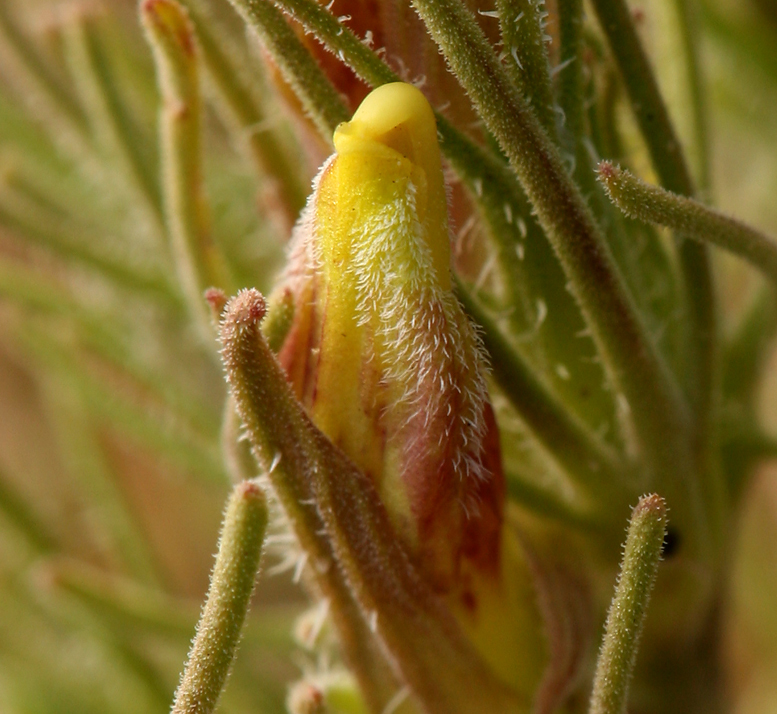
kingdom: Plantae
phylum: Tracheophyta
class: Magnoliopsida
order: Lamiales
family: Orobanchaceae
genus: Cordylanthus
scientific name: Cordylanthus ramosus
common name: Much-branched bird's-beak
